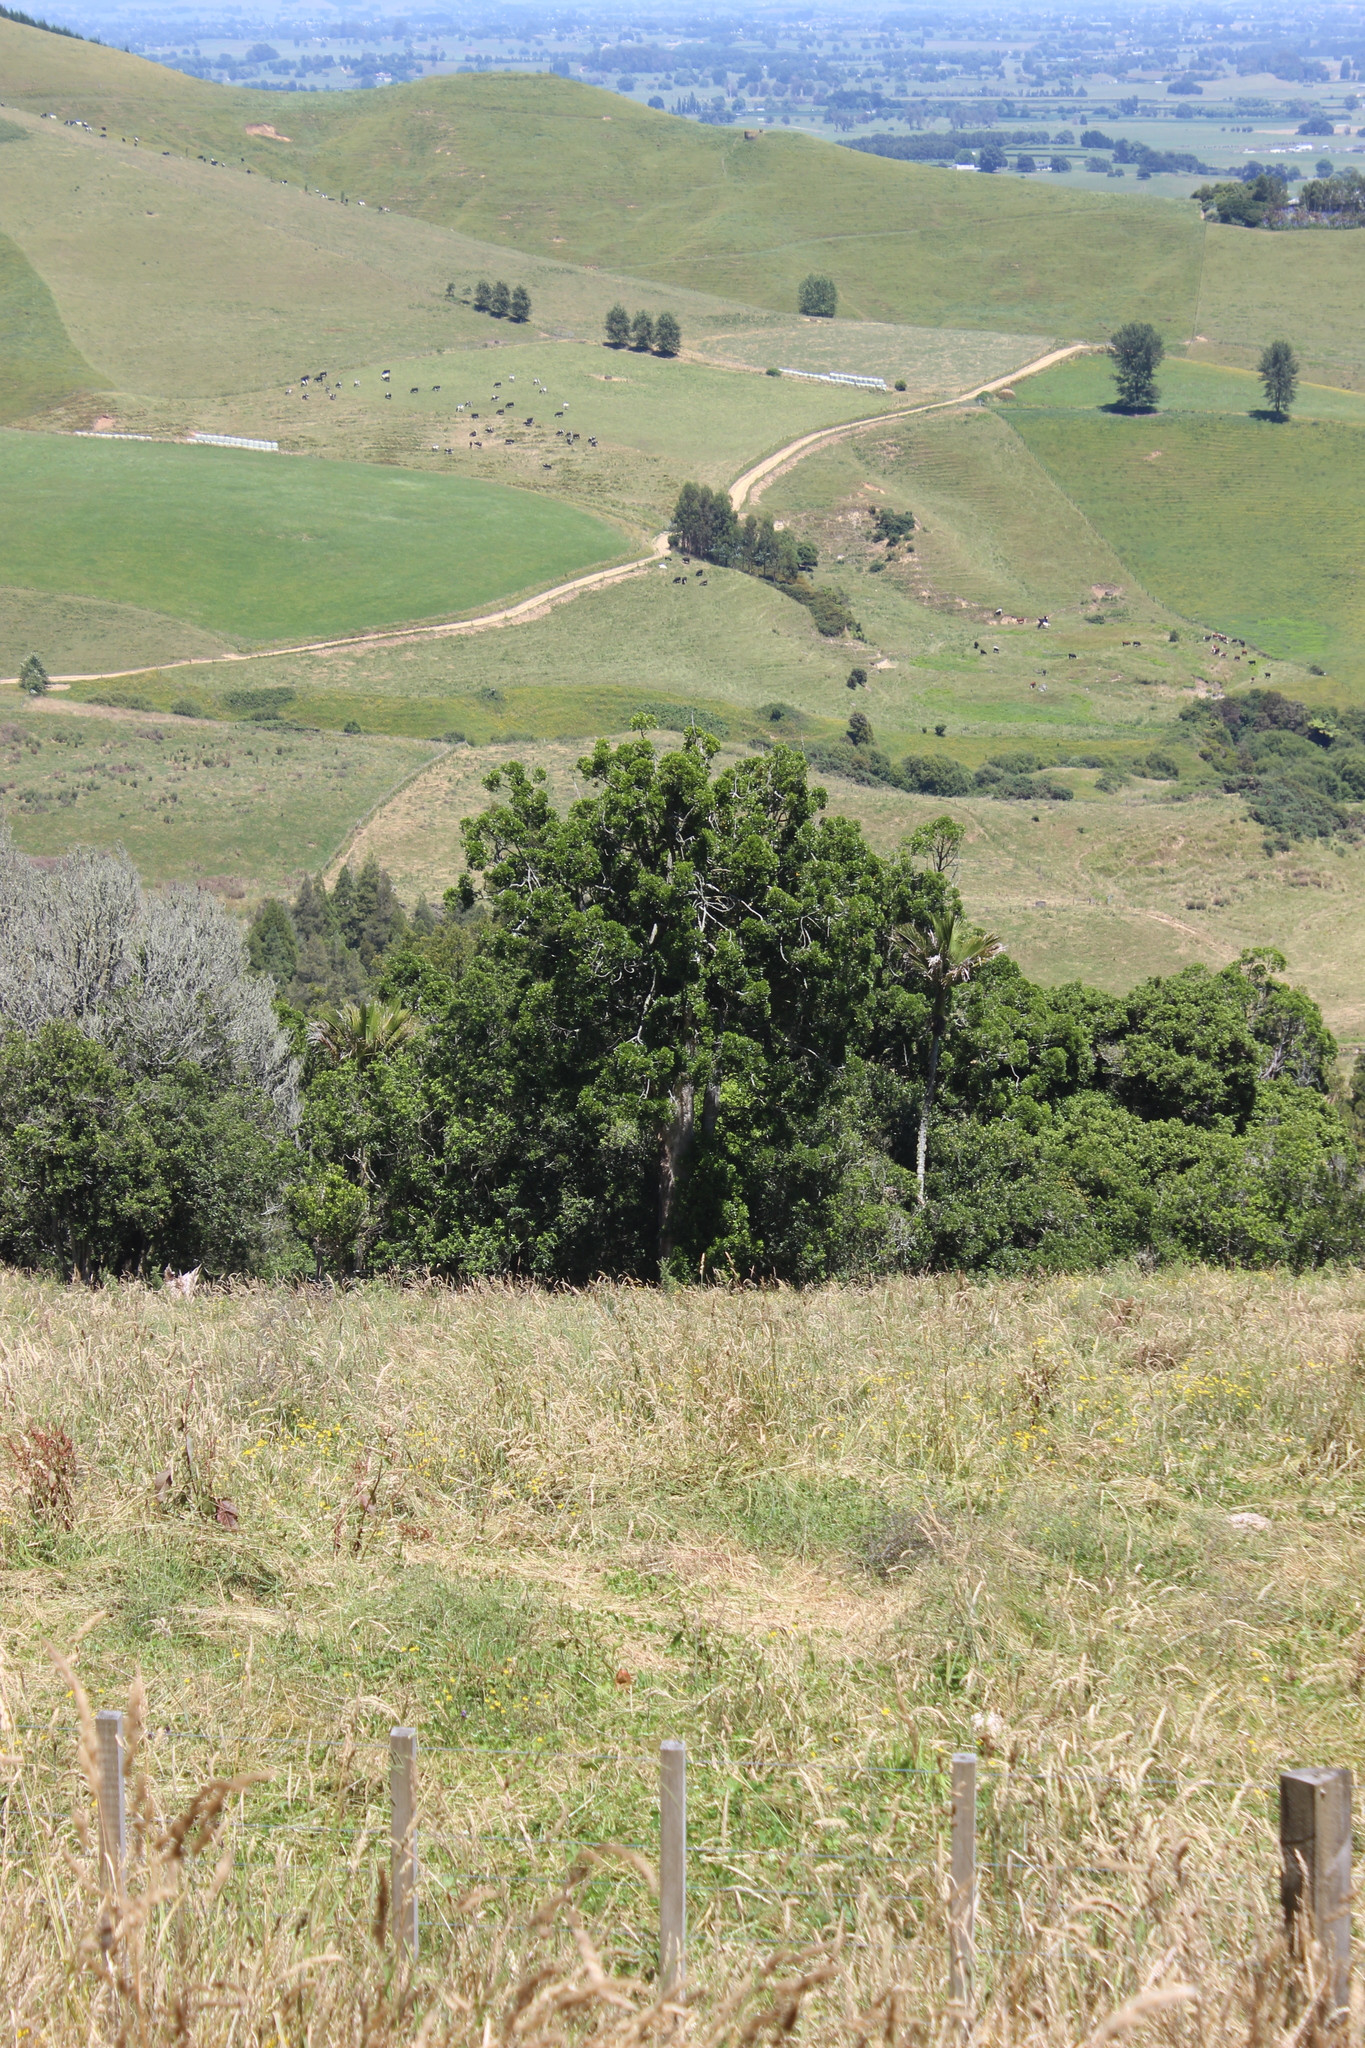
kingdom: Plantae
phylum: Tracheophyta
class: Magnoliopsida
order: Laurales
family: Lauraceae
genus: Litsea
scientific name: Litsea calicaris
